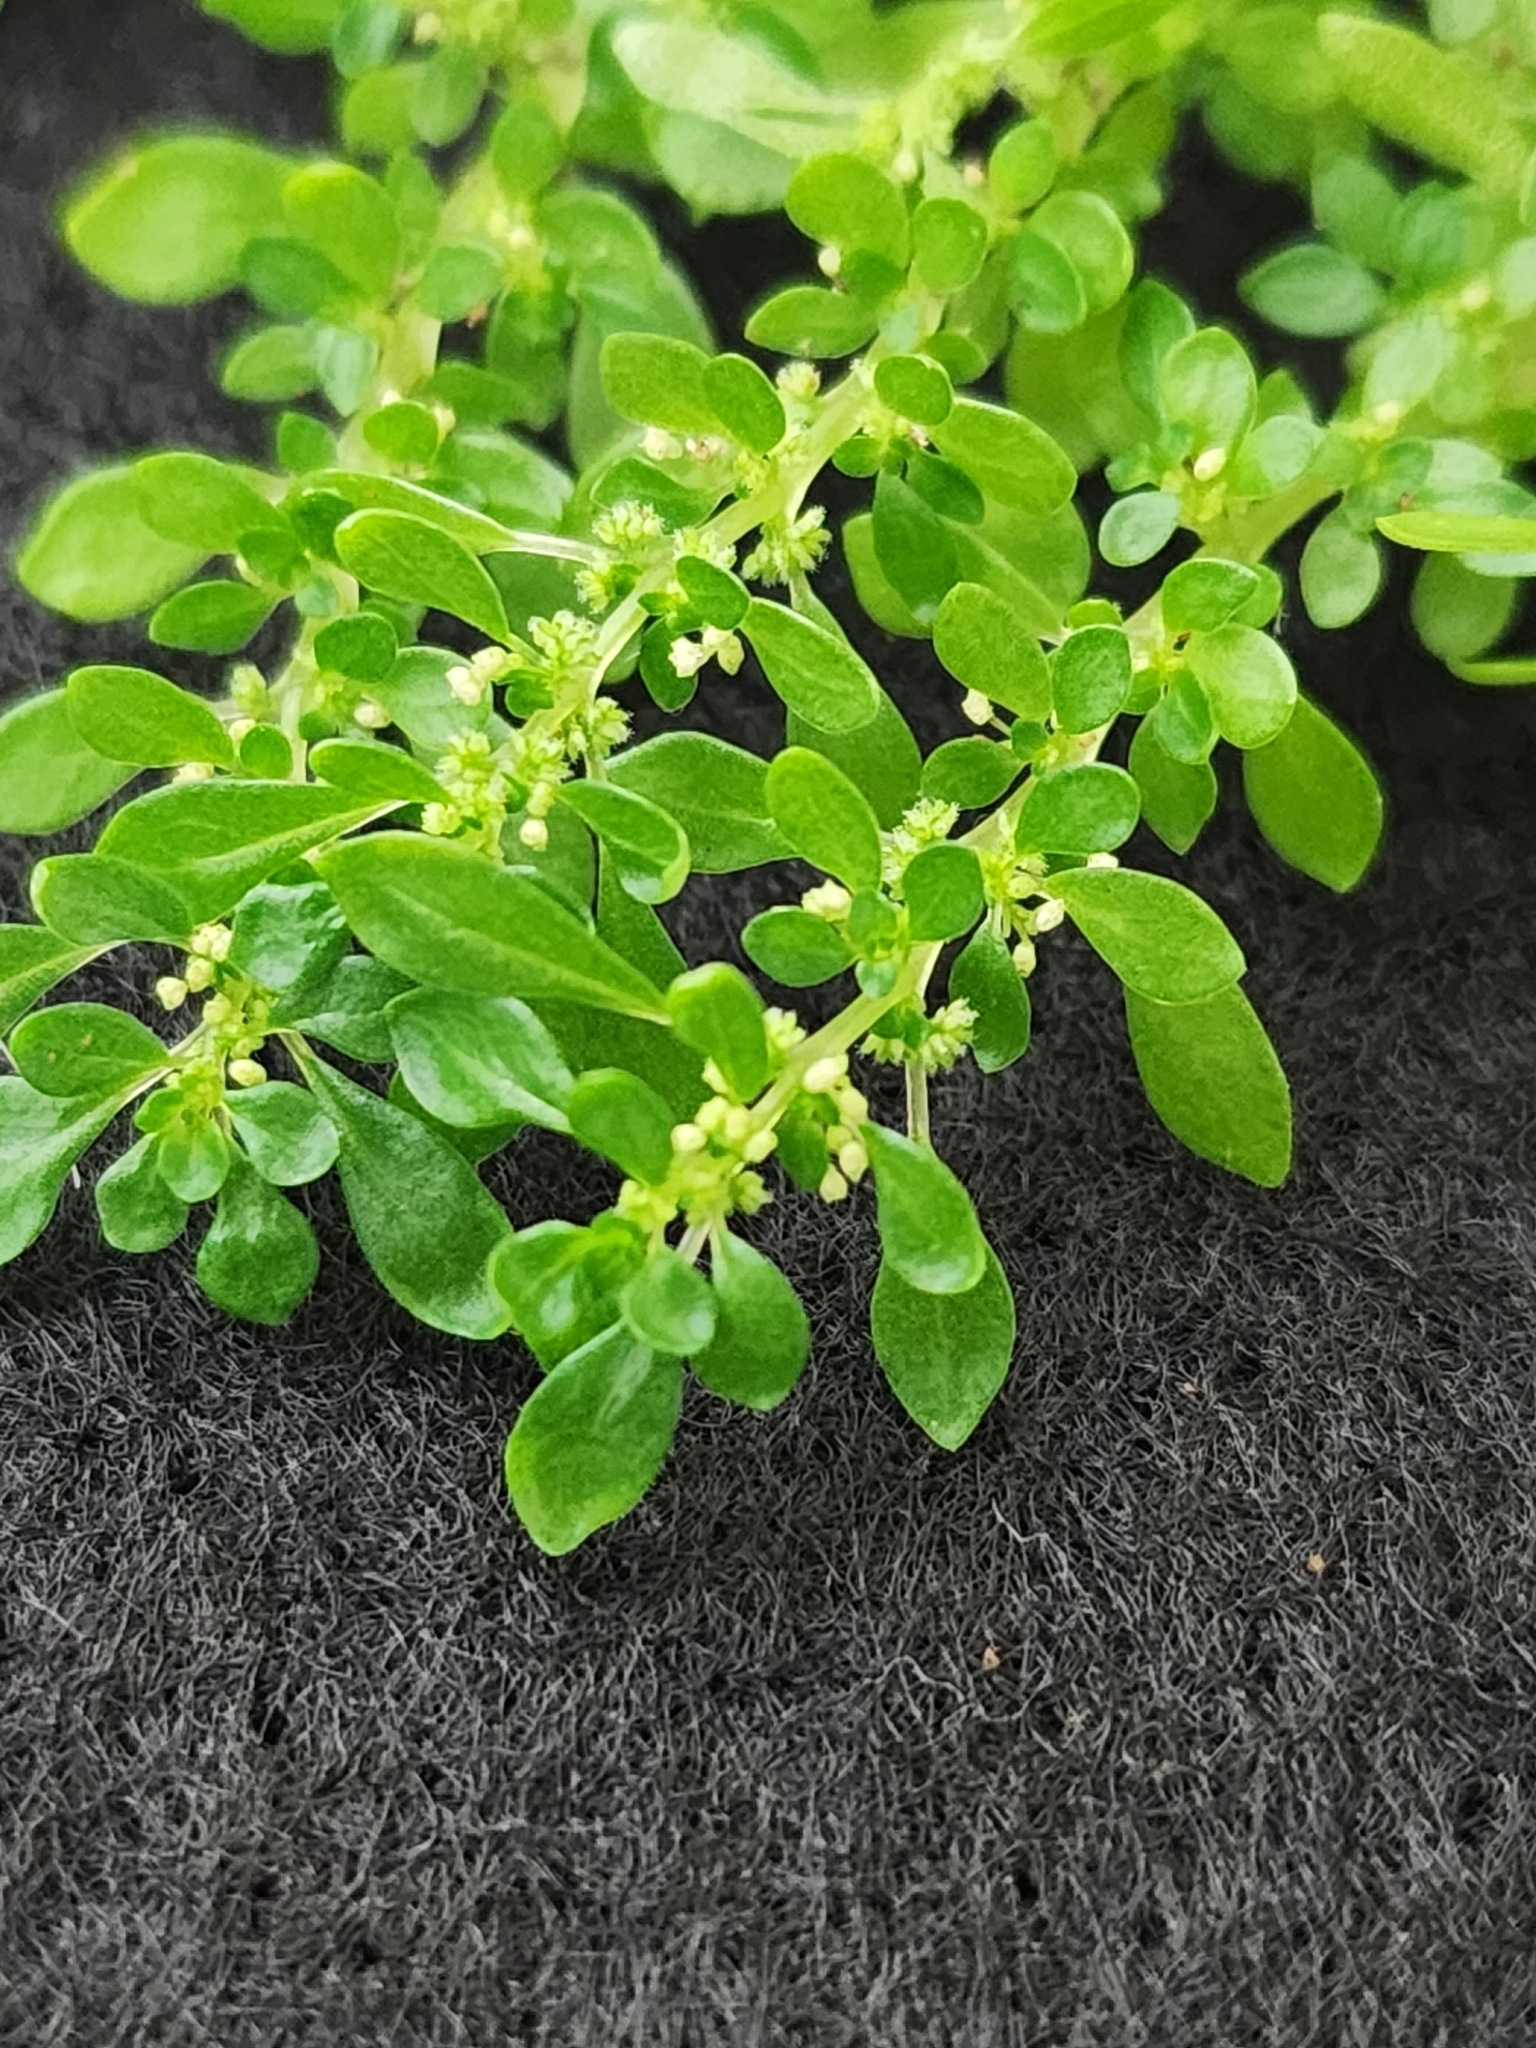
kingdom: Plantae
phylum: Tracheophyta
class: Magnoliopsida
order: Rosales
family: Urticaceae
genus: Pilea
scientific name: Pilea microphylla
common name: Artillery-plant
